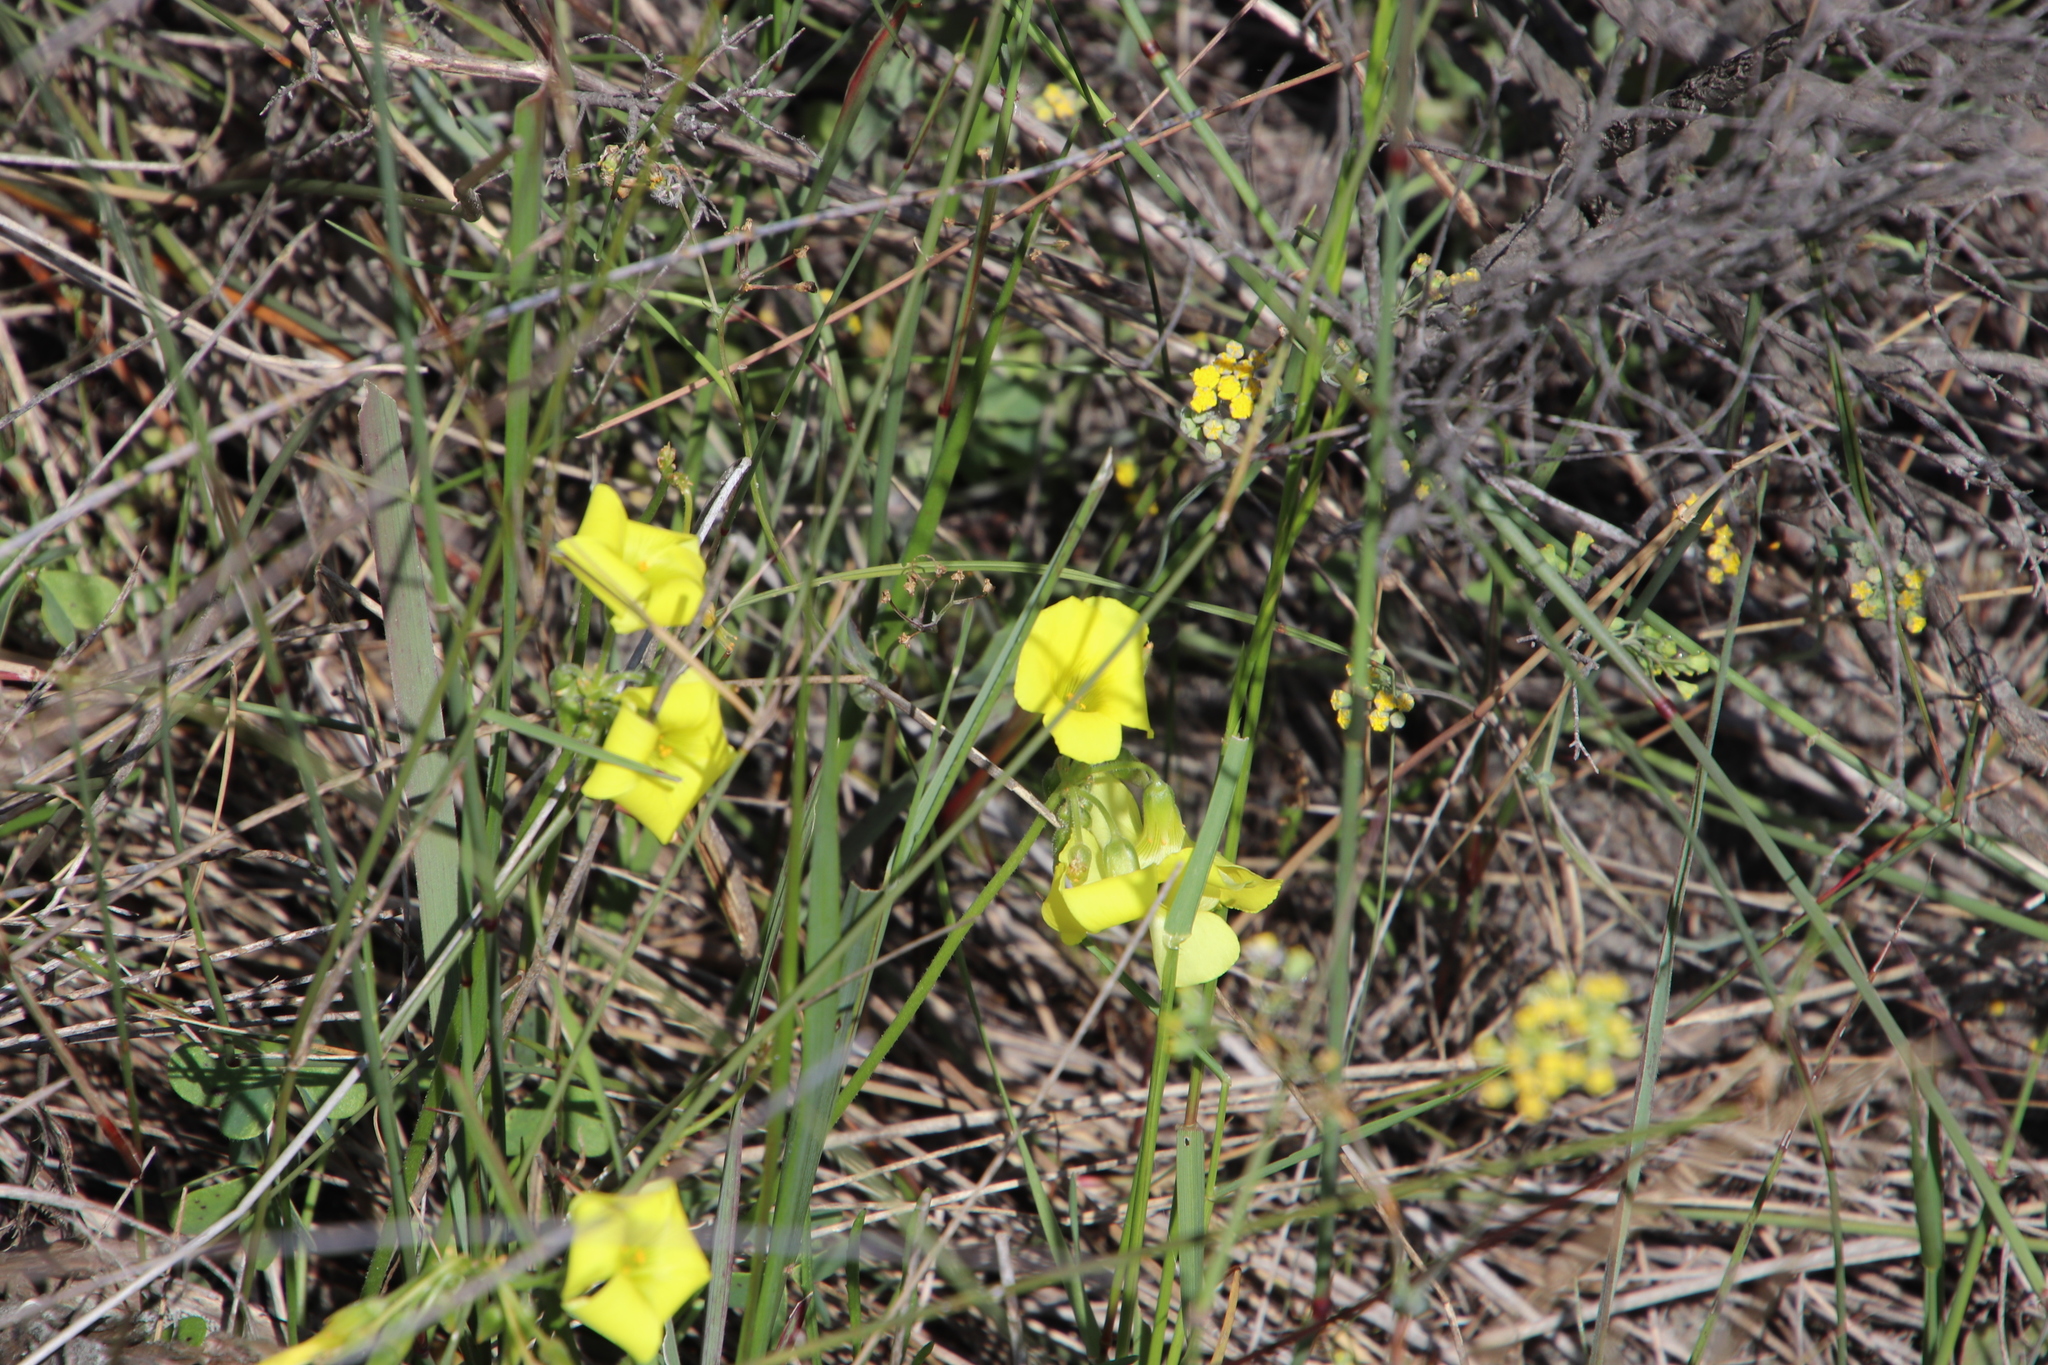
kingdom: Plantae
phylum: Tracheophyta
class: Magnoliopsida
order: Oxalidales
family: Oxalidaceae
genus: Oxalis
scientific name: Oxalis pes-caprae
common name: Bermuda-buttercup
